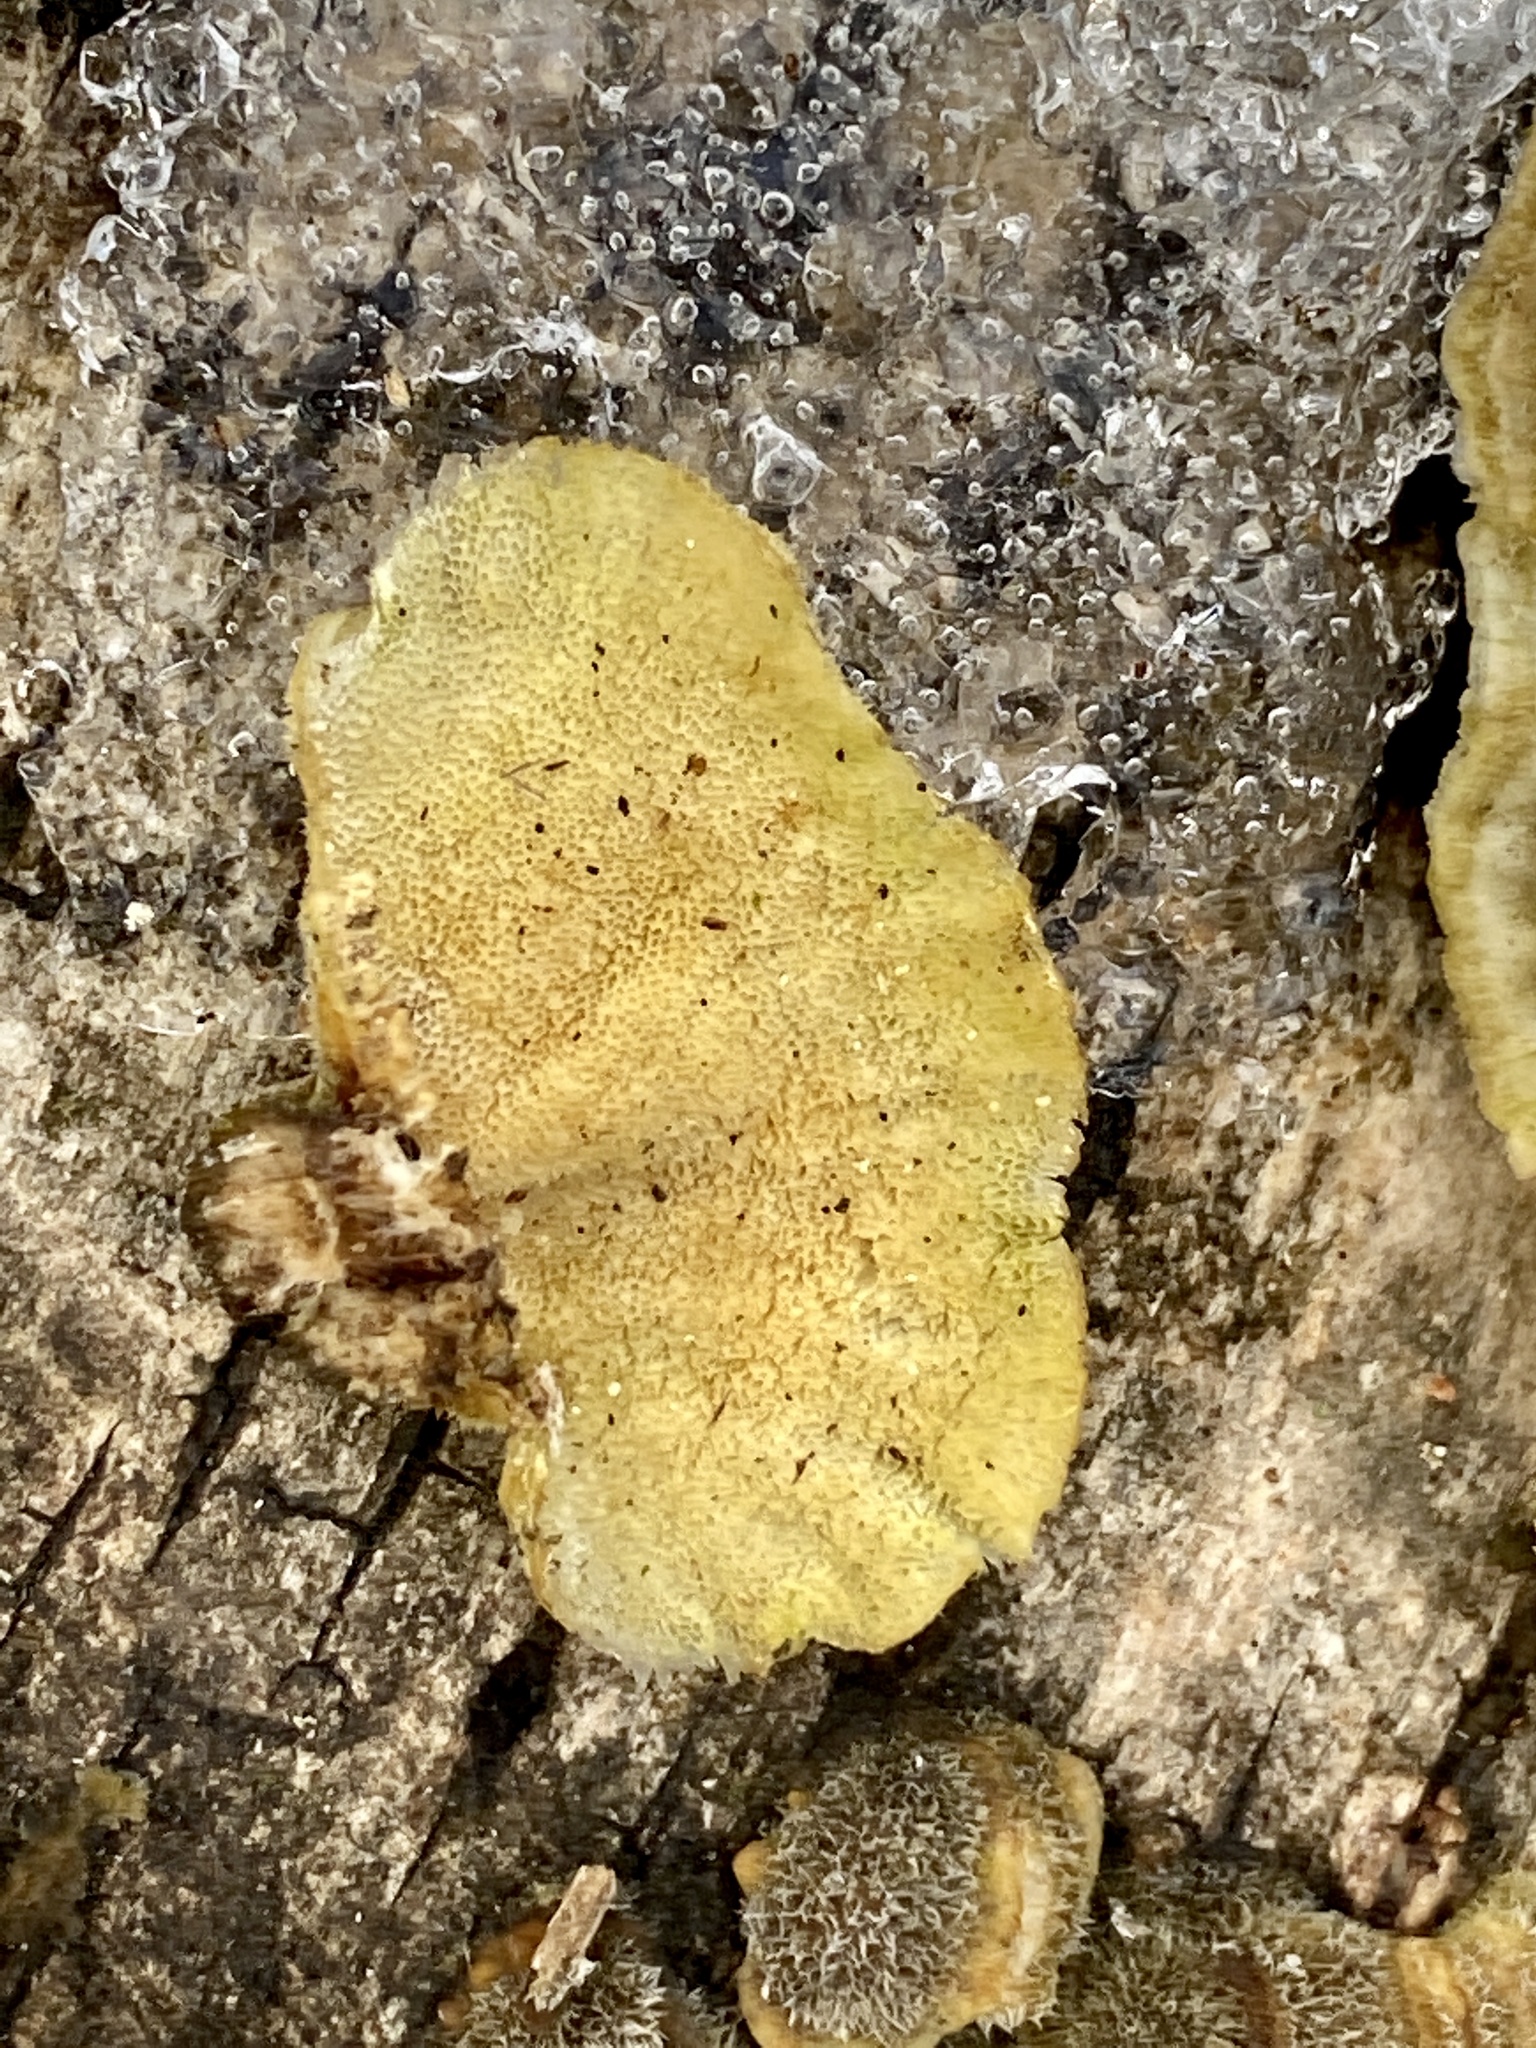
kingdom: Fungi
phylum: Basidiomycota
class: Agaricomycetes
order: Polyporales
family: Polyporaceae
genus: Trametes
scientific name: Trametes versicolor
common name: Turkeytail
